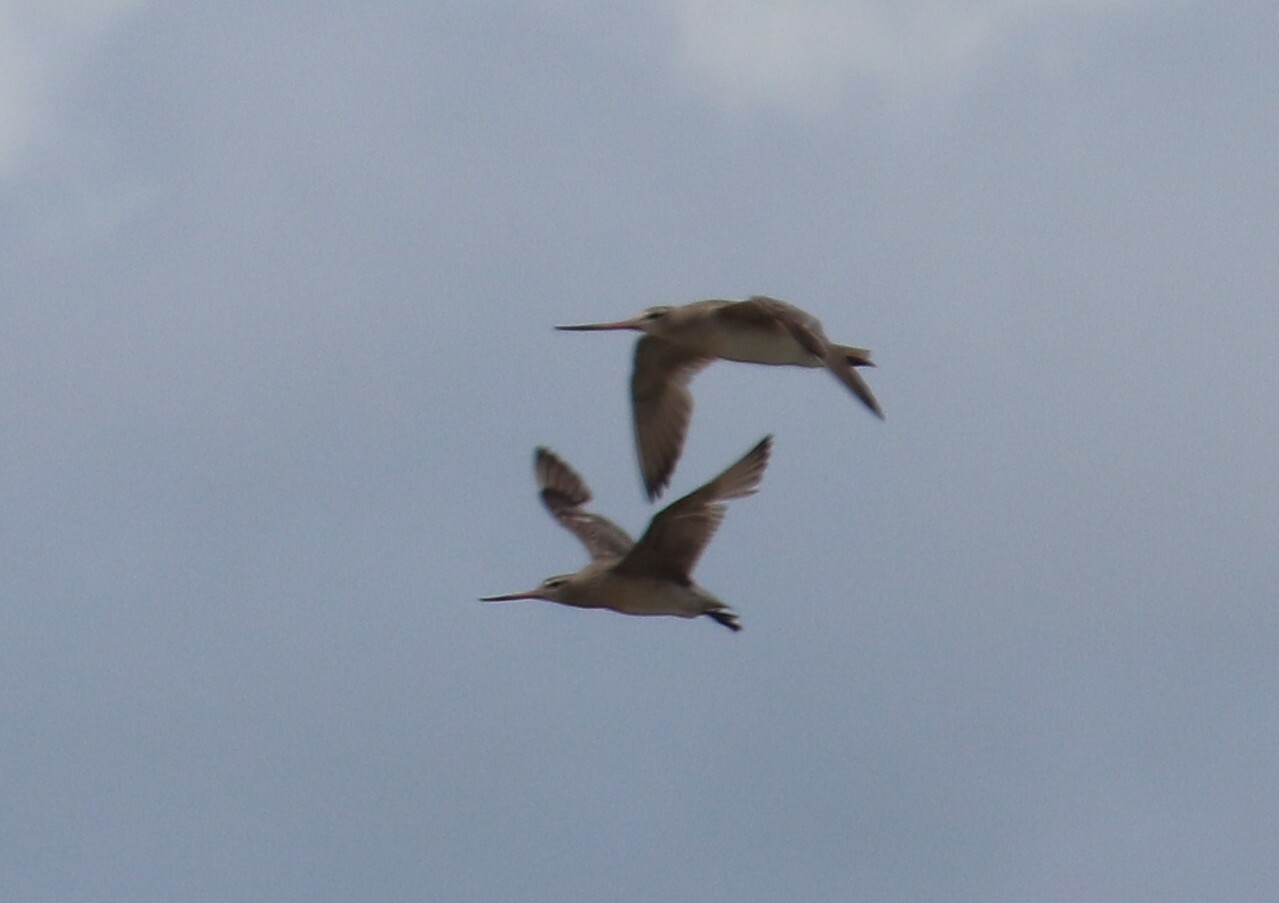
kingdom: Animalia
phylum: Chordata
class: Aves
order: Charadriiformes
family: Scolopacidae
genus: Limosa
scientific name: Limosa lapponica
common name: Bar-tailed godwit
